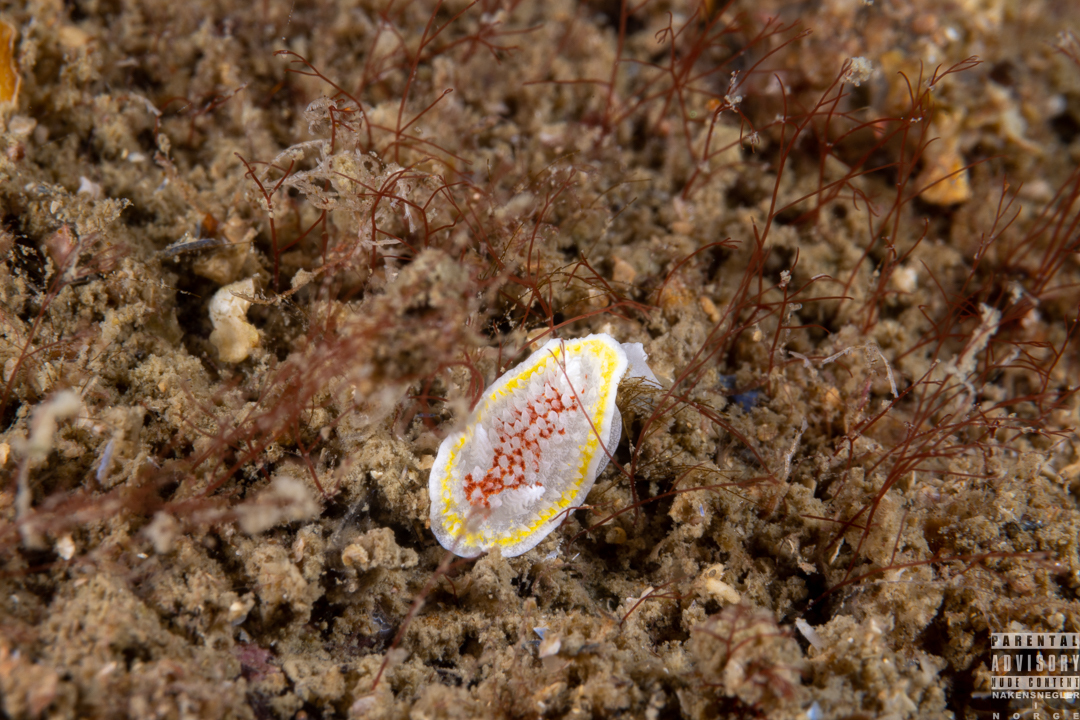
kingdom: Animalia
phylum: Mollusca
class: Gastropoda
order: Nudibranchia
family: Calycidorididae
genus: Diaphorodoris
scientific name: Diaphorodoris luteocincta
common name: Fried egg nudibranch
